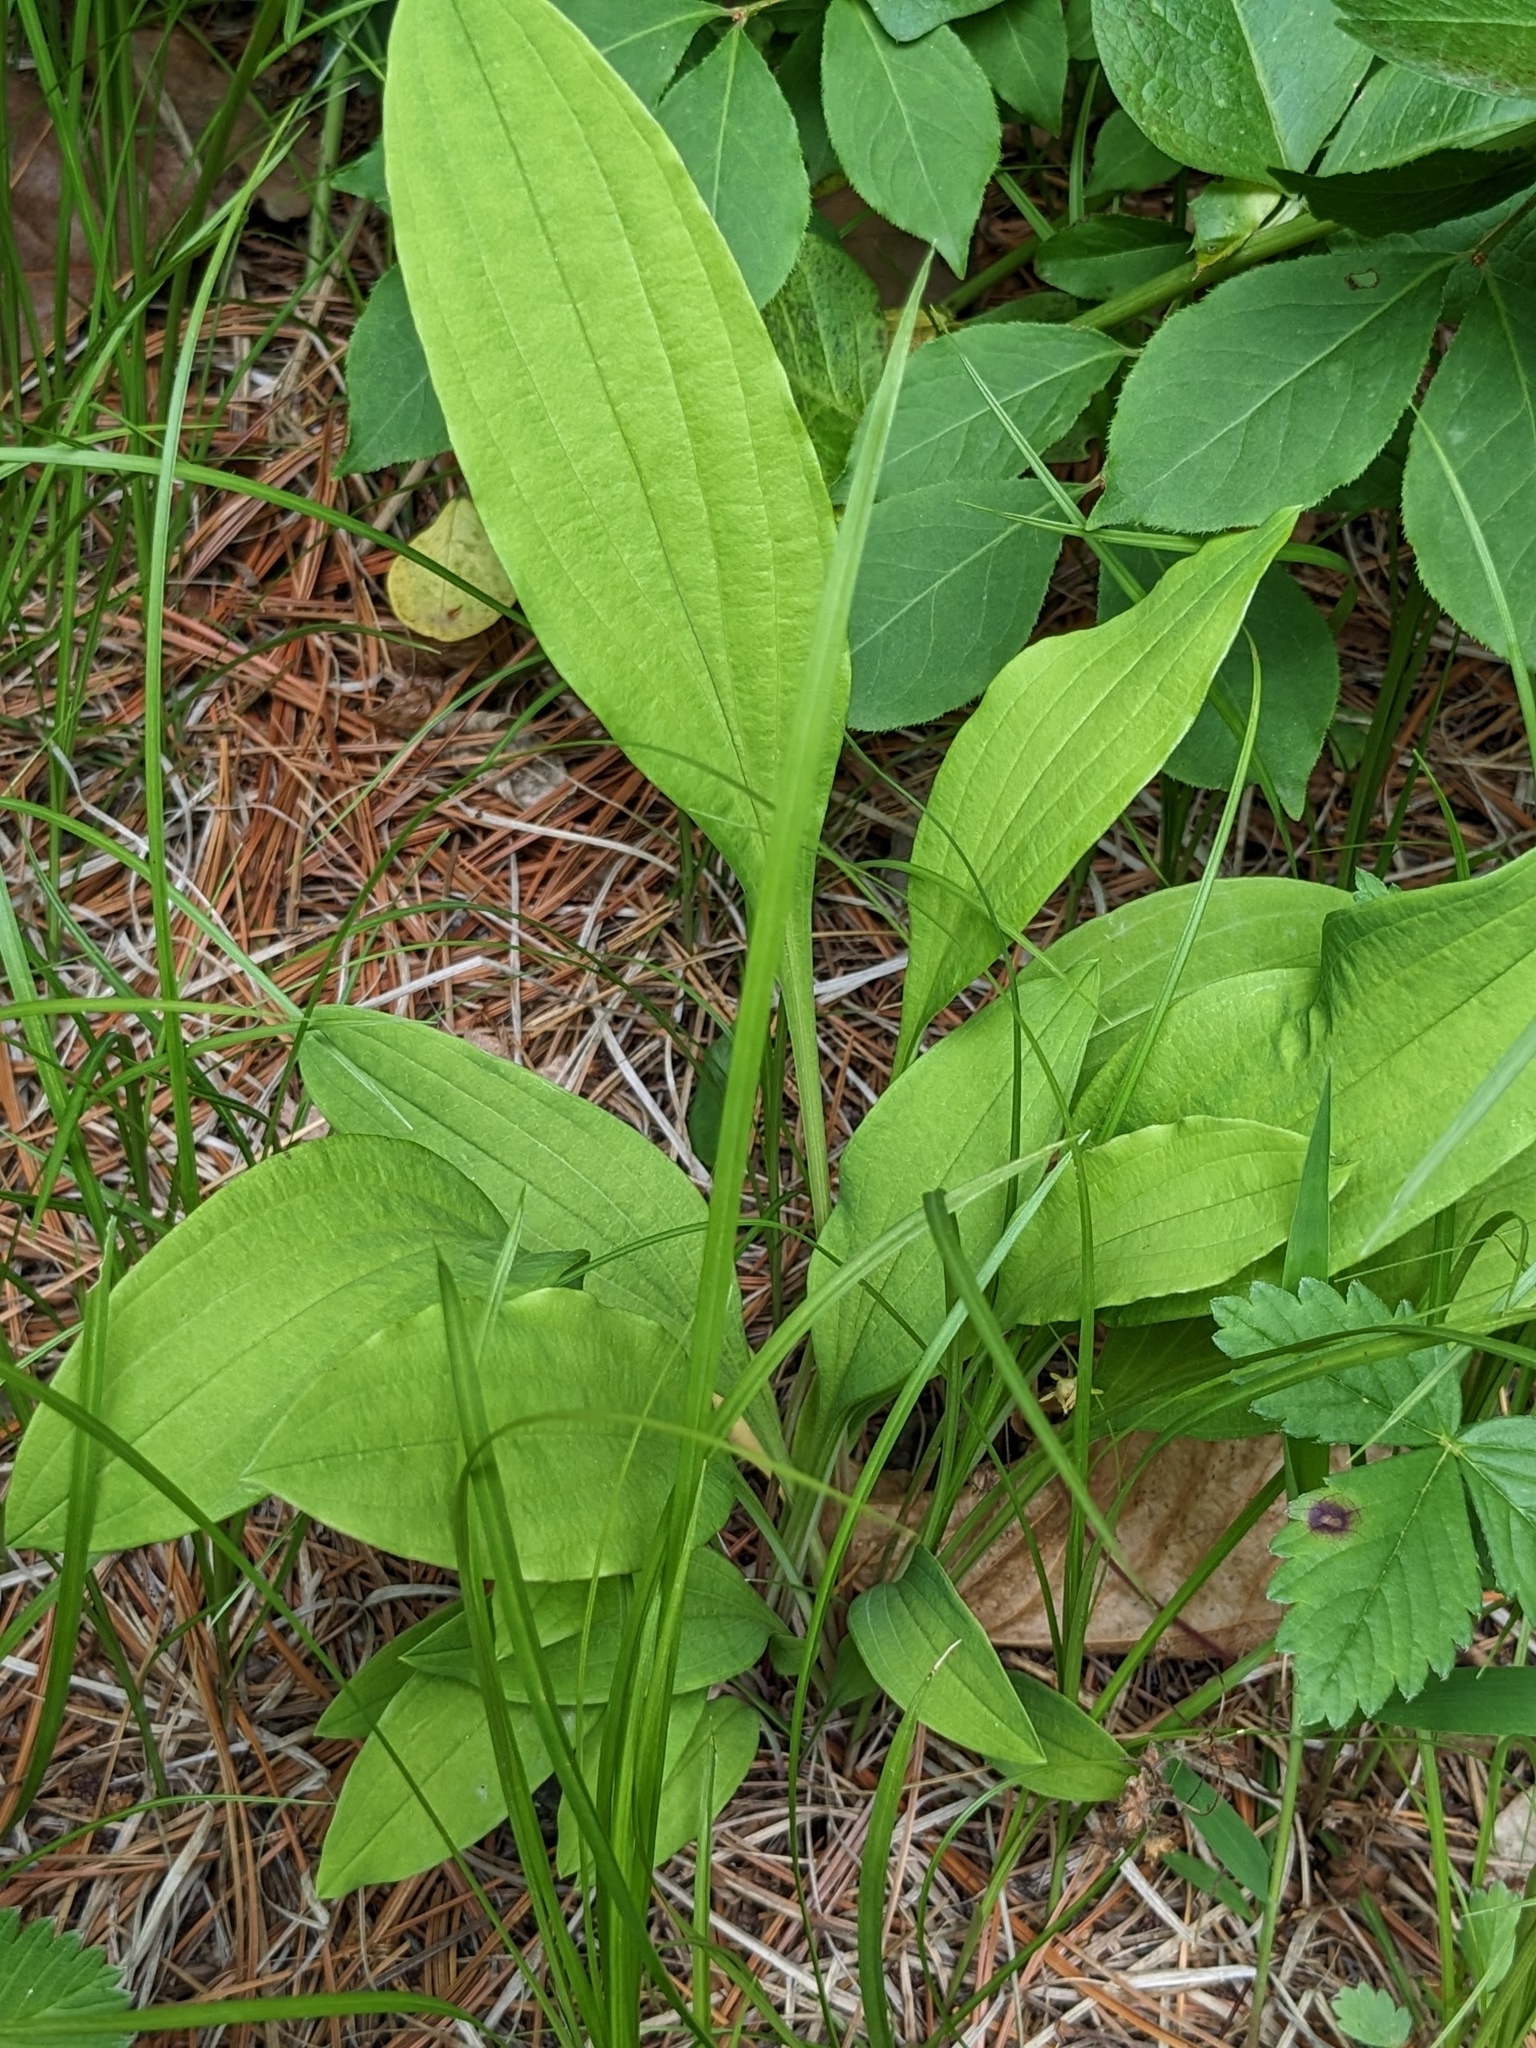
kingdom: Plantae
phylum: Tracheophyta
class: Magnoliopsida
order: Apiales
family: Apiaceae
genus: Bupleurum
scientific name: Bupleurum longiradiatum
